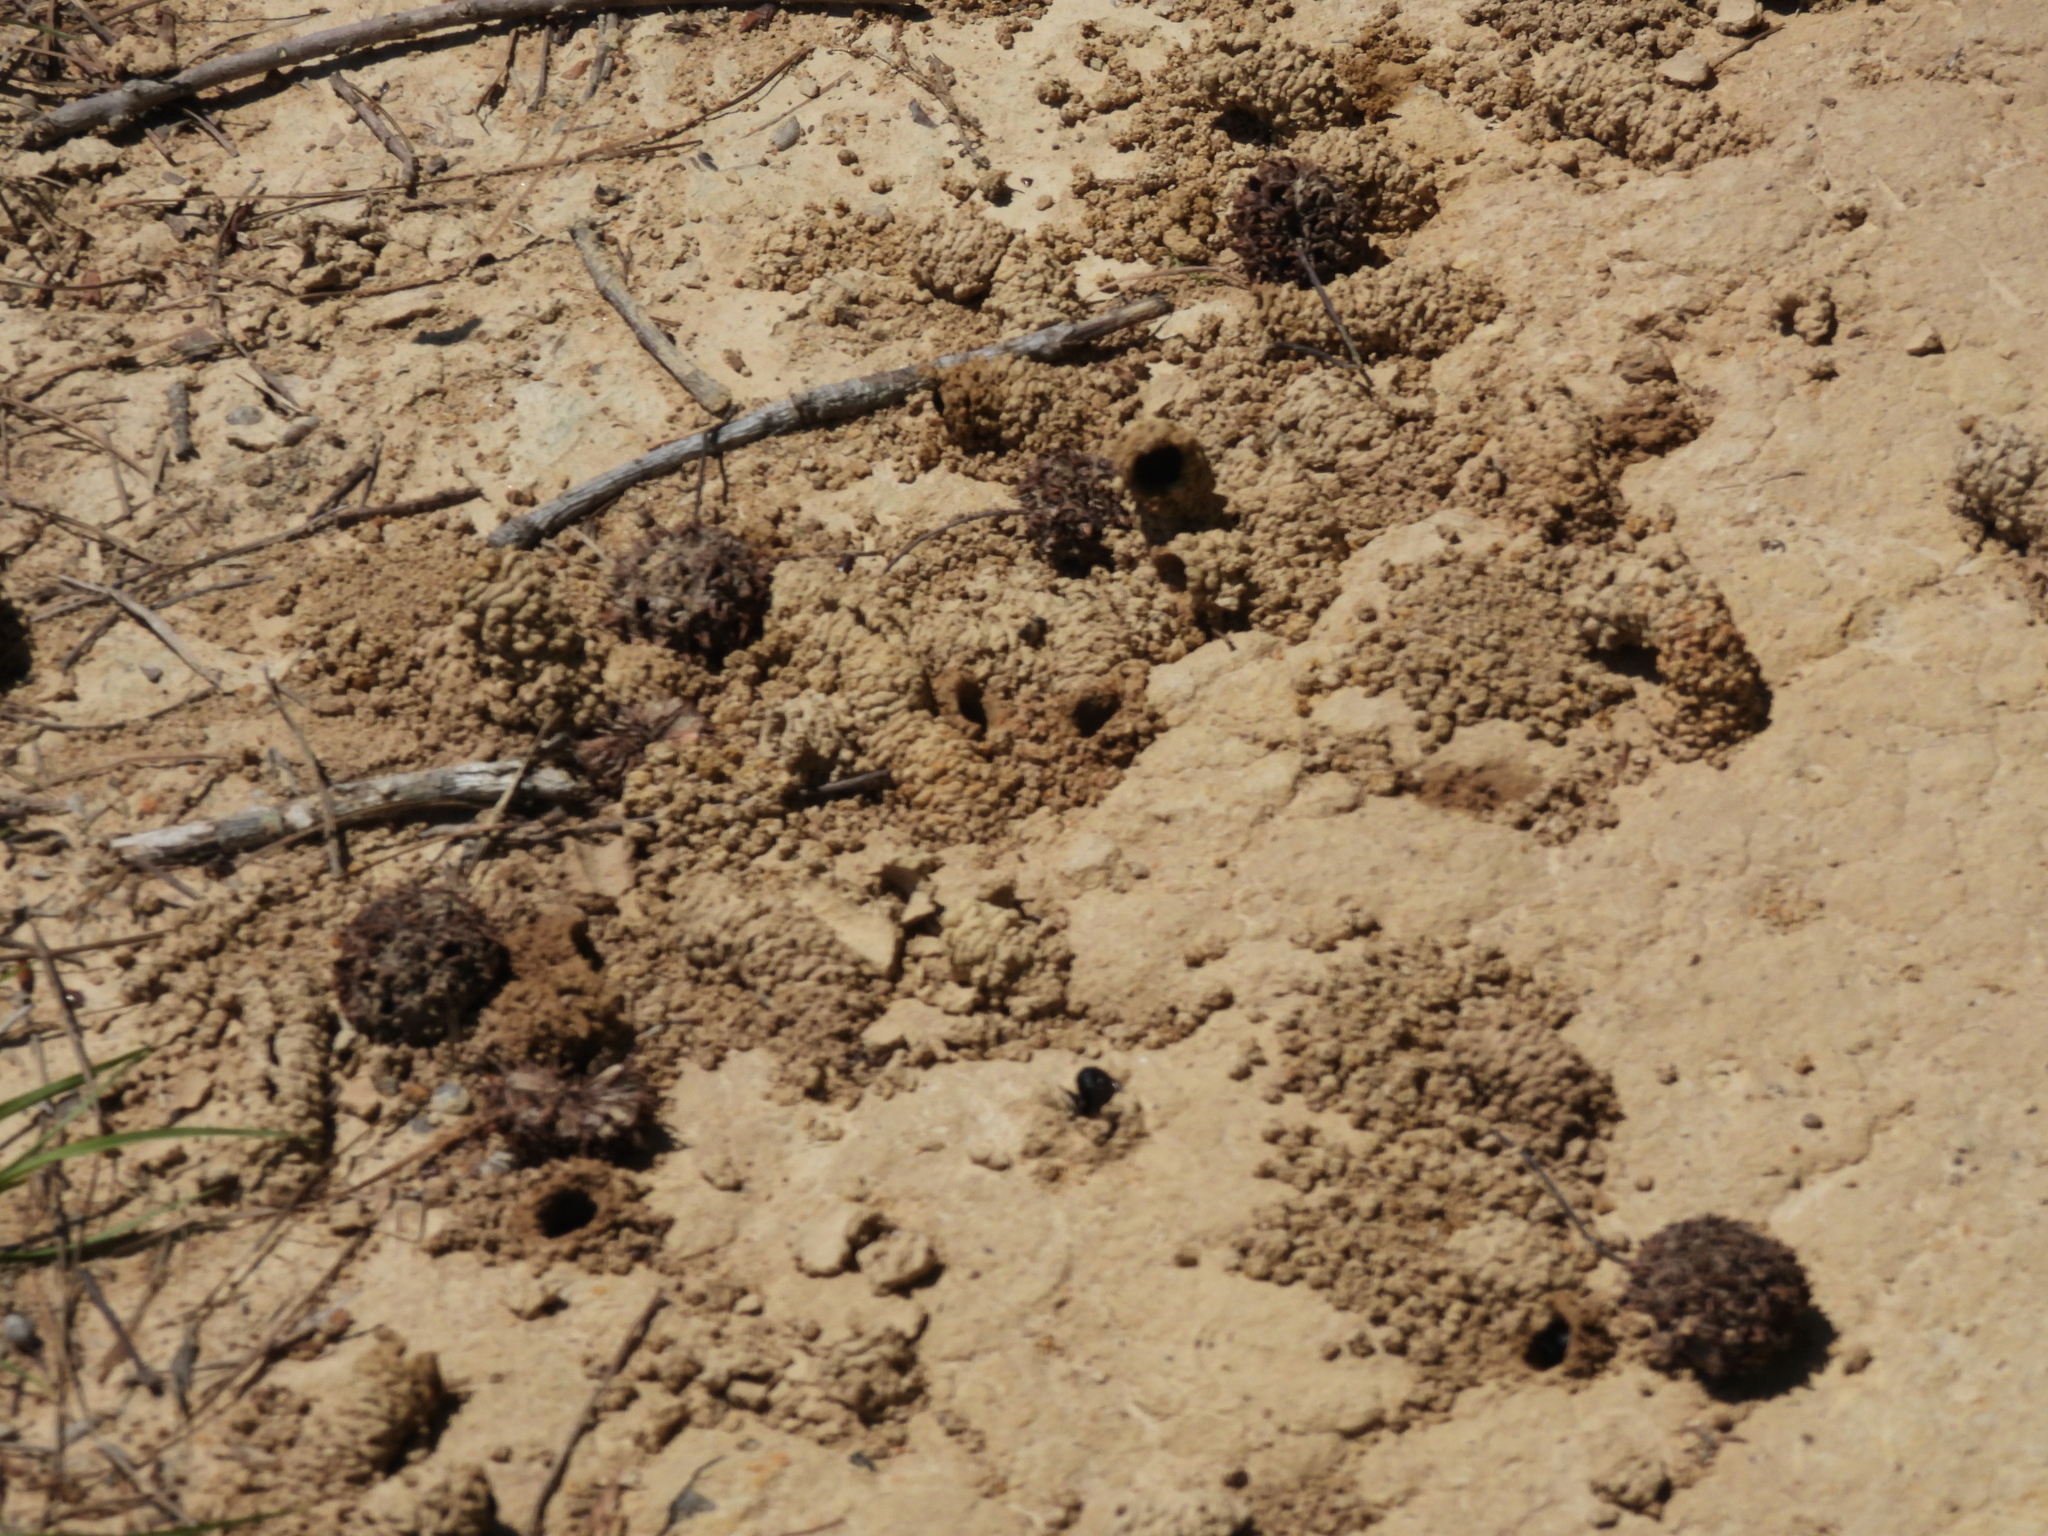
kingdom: Animalia
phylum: Arthropoda
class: Insecta
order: Hymenoptera
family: Apidae
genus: Anthophora
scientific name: Anthophora abrupta
